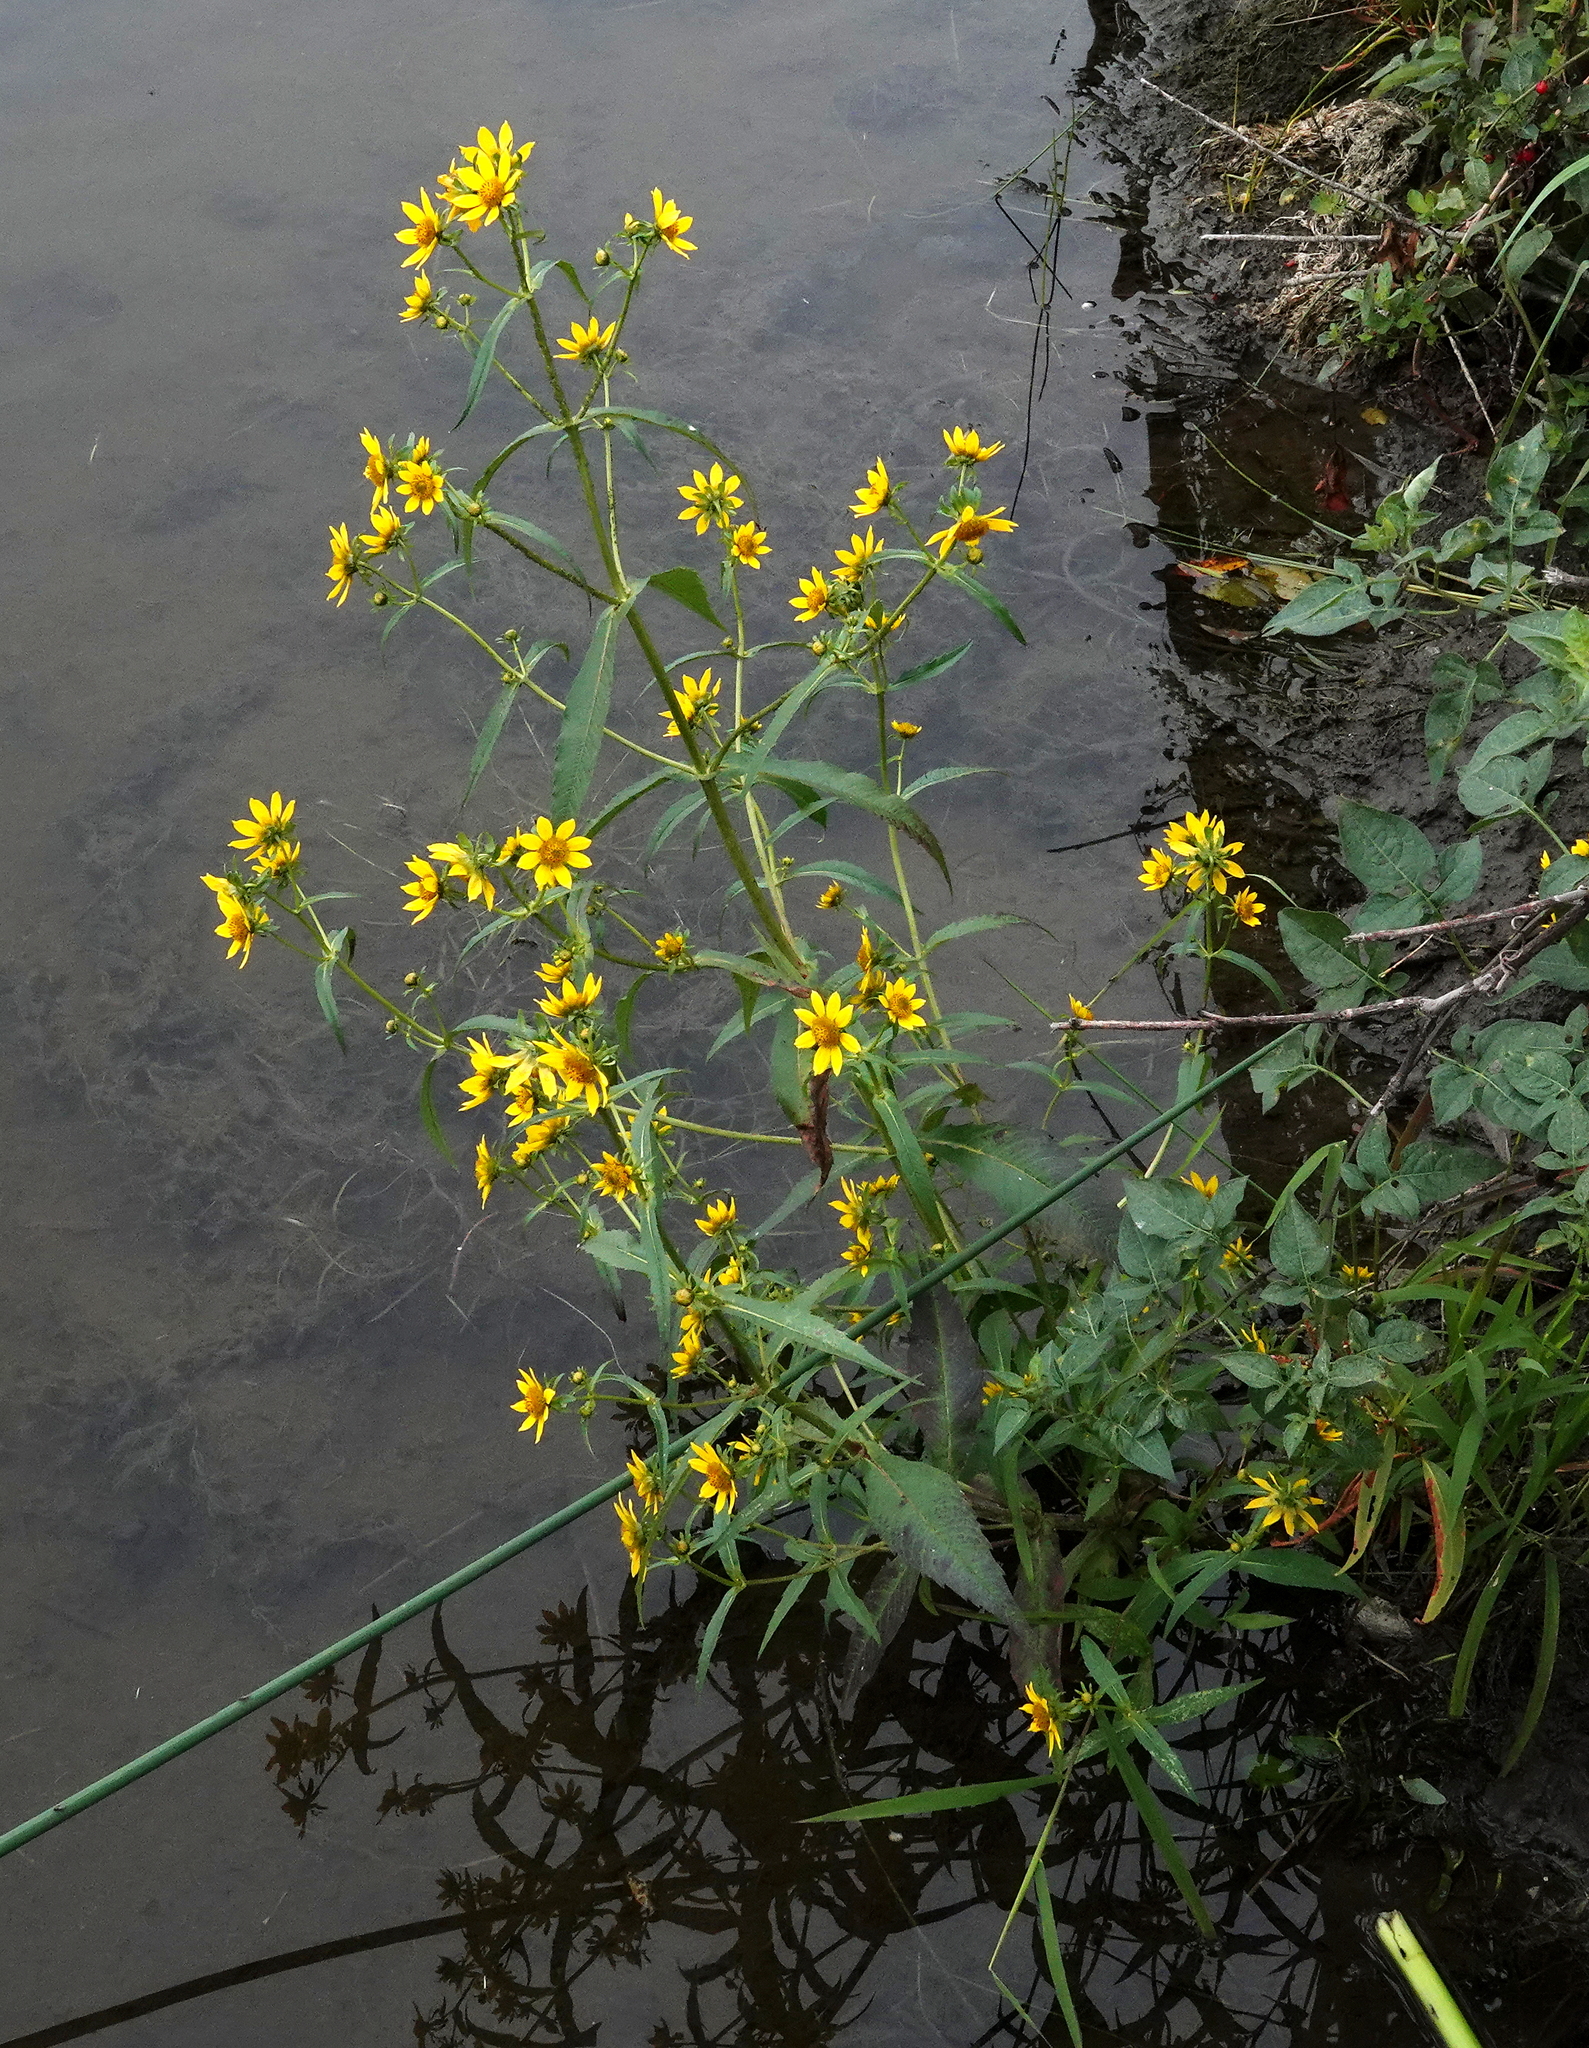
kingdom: Plantae
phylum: Tracheophyta
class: Magnoliopsida
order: Asterales
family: Asteraceae
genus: Bidens
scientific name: Bidens cernua
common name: Nodding bur-marigold
